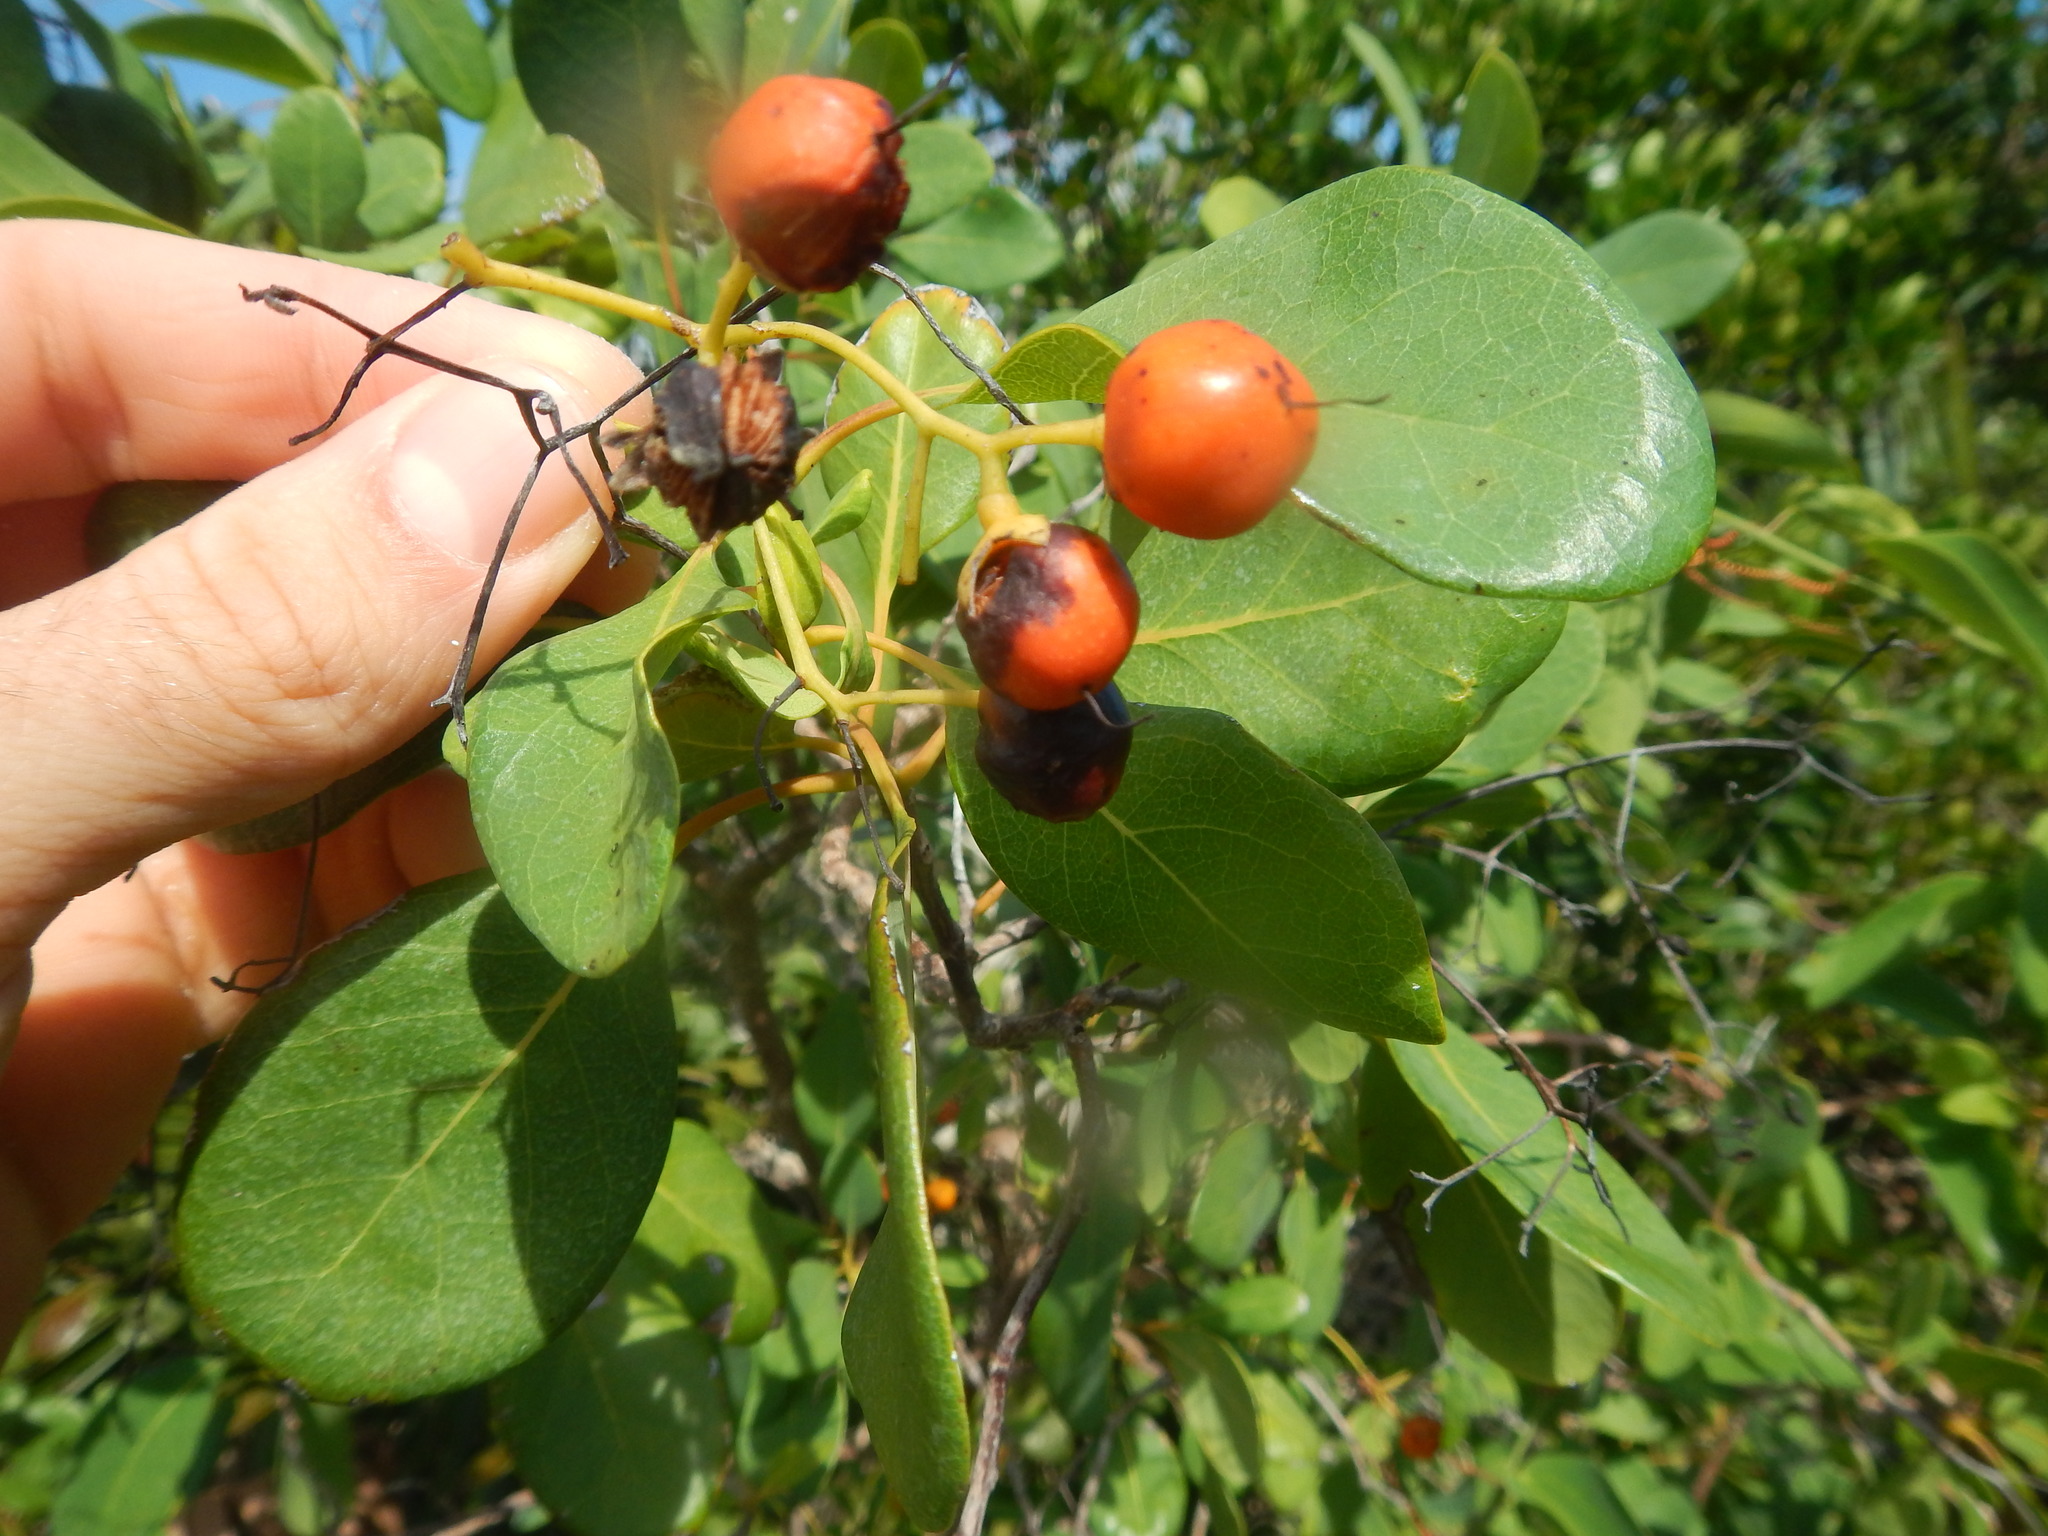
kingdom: Plantae
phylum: Tracheophyta
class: Magnoliopsida
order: Boraginales
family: Ehretiaceae
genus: Bourreria
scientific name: Bourreria succulenta
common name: Cherry
